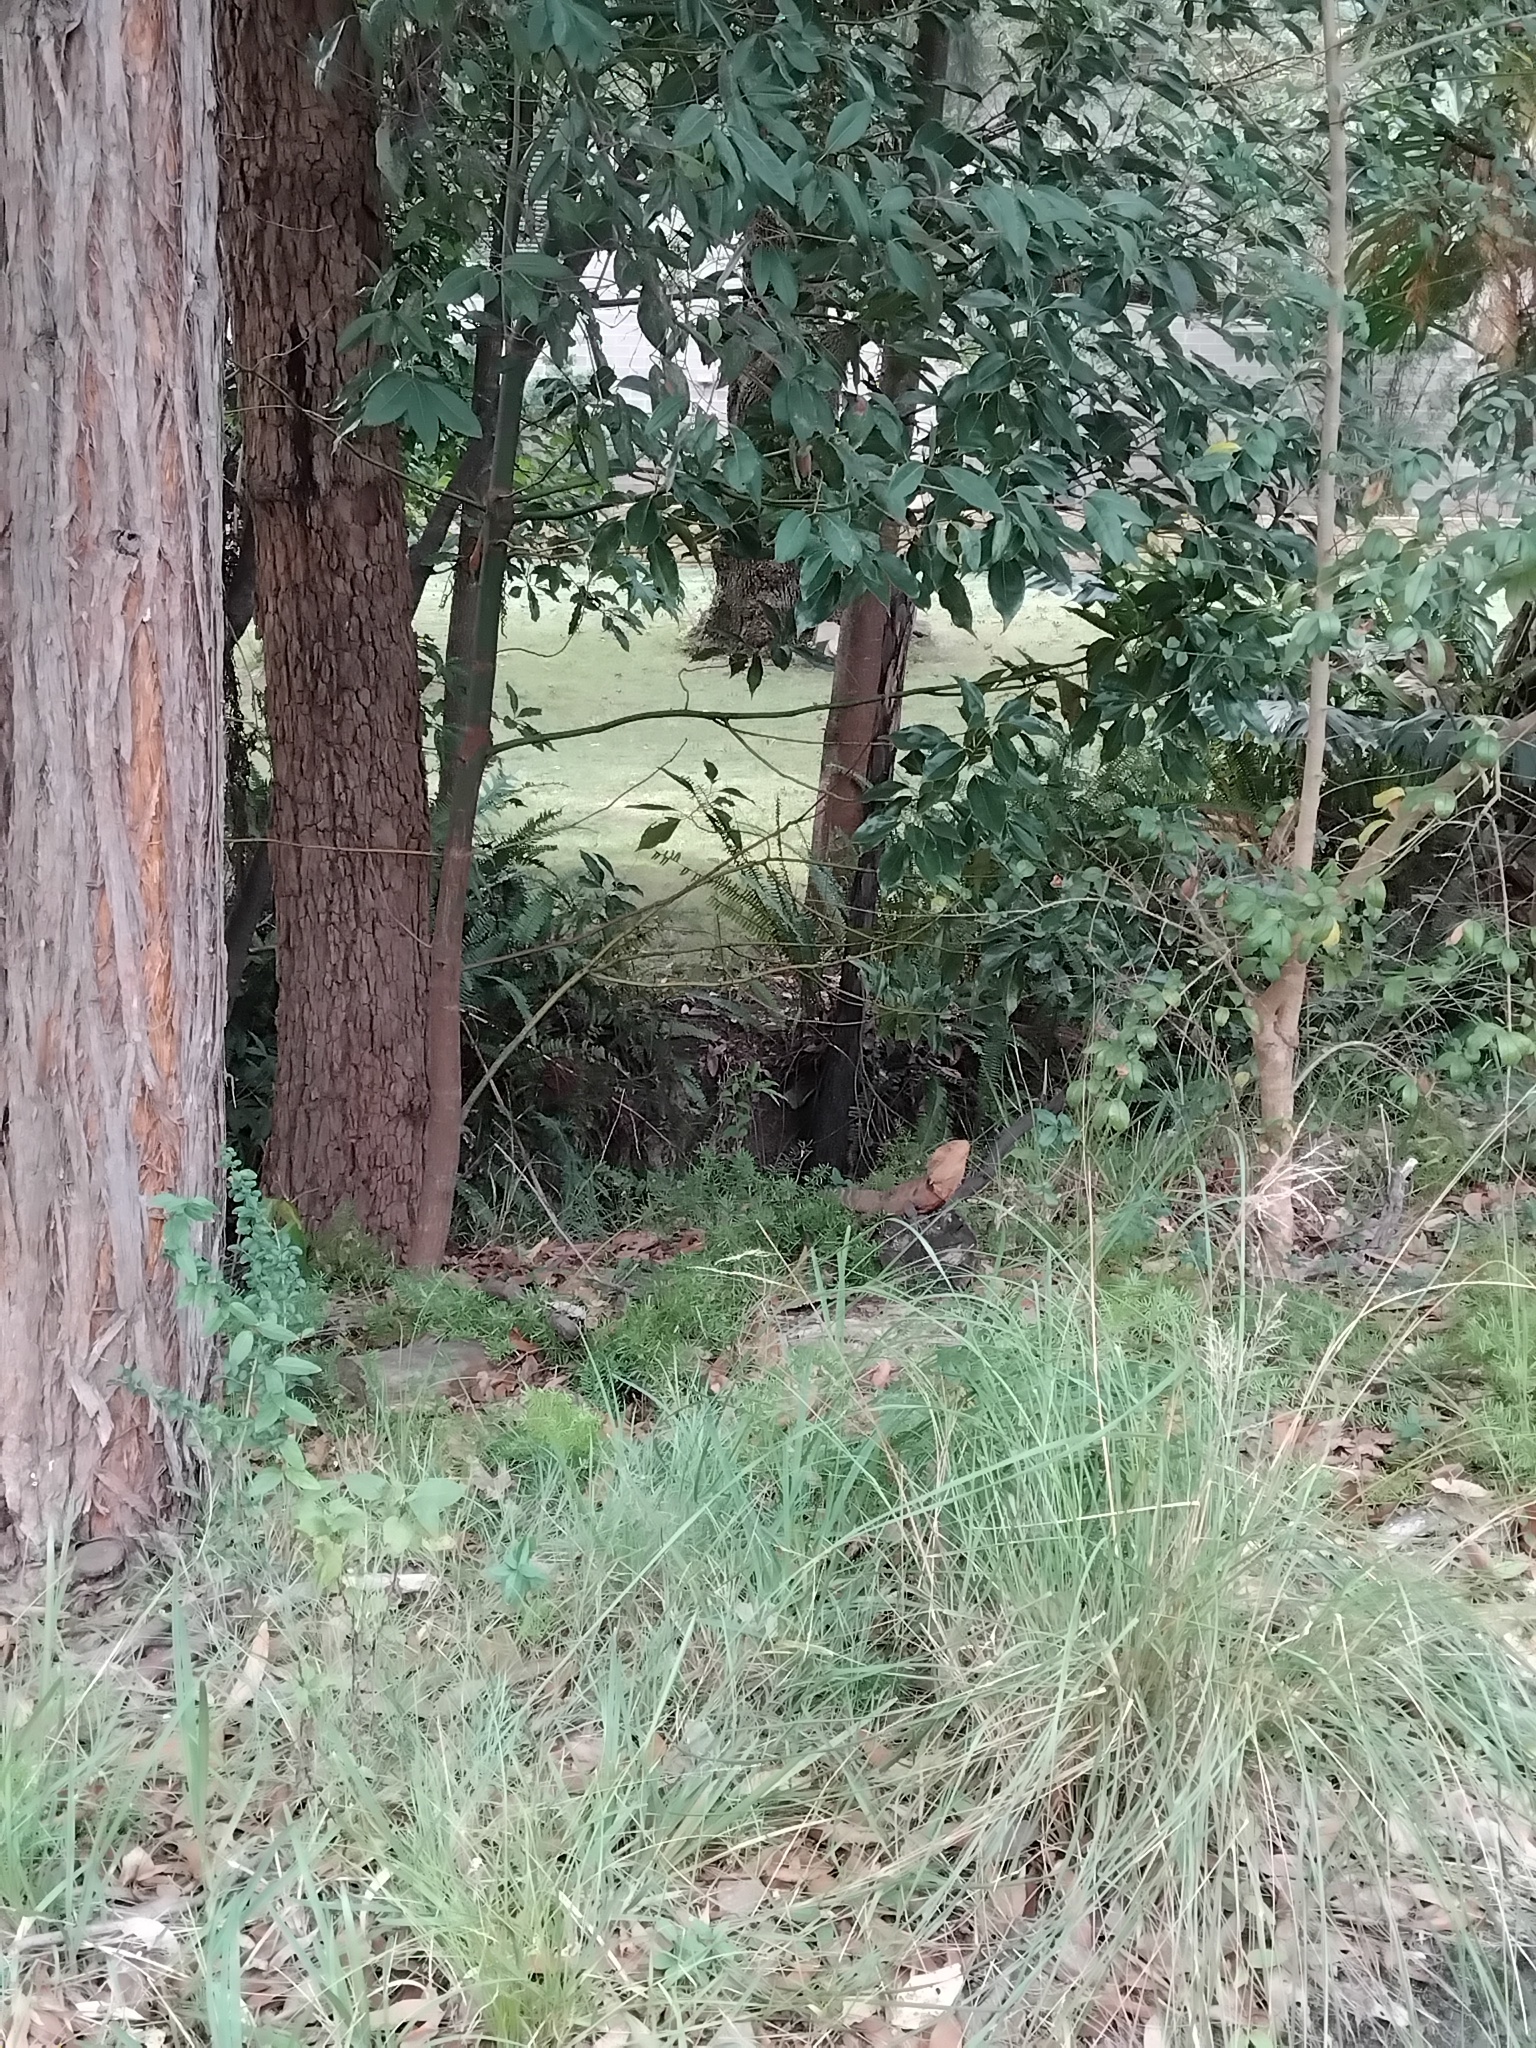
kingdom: Animalia
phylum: Chordata
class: Squamata
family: Agamidae
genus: Intellagama
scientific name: Intellagama lesueurii
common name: Eastern water dragon
